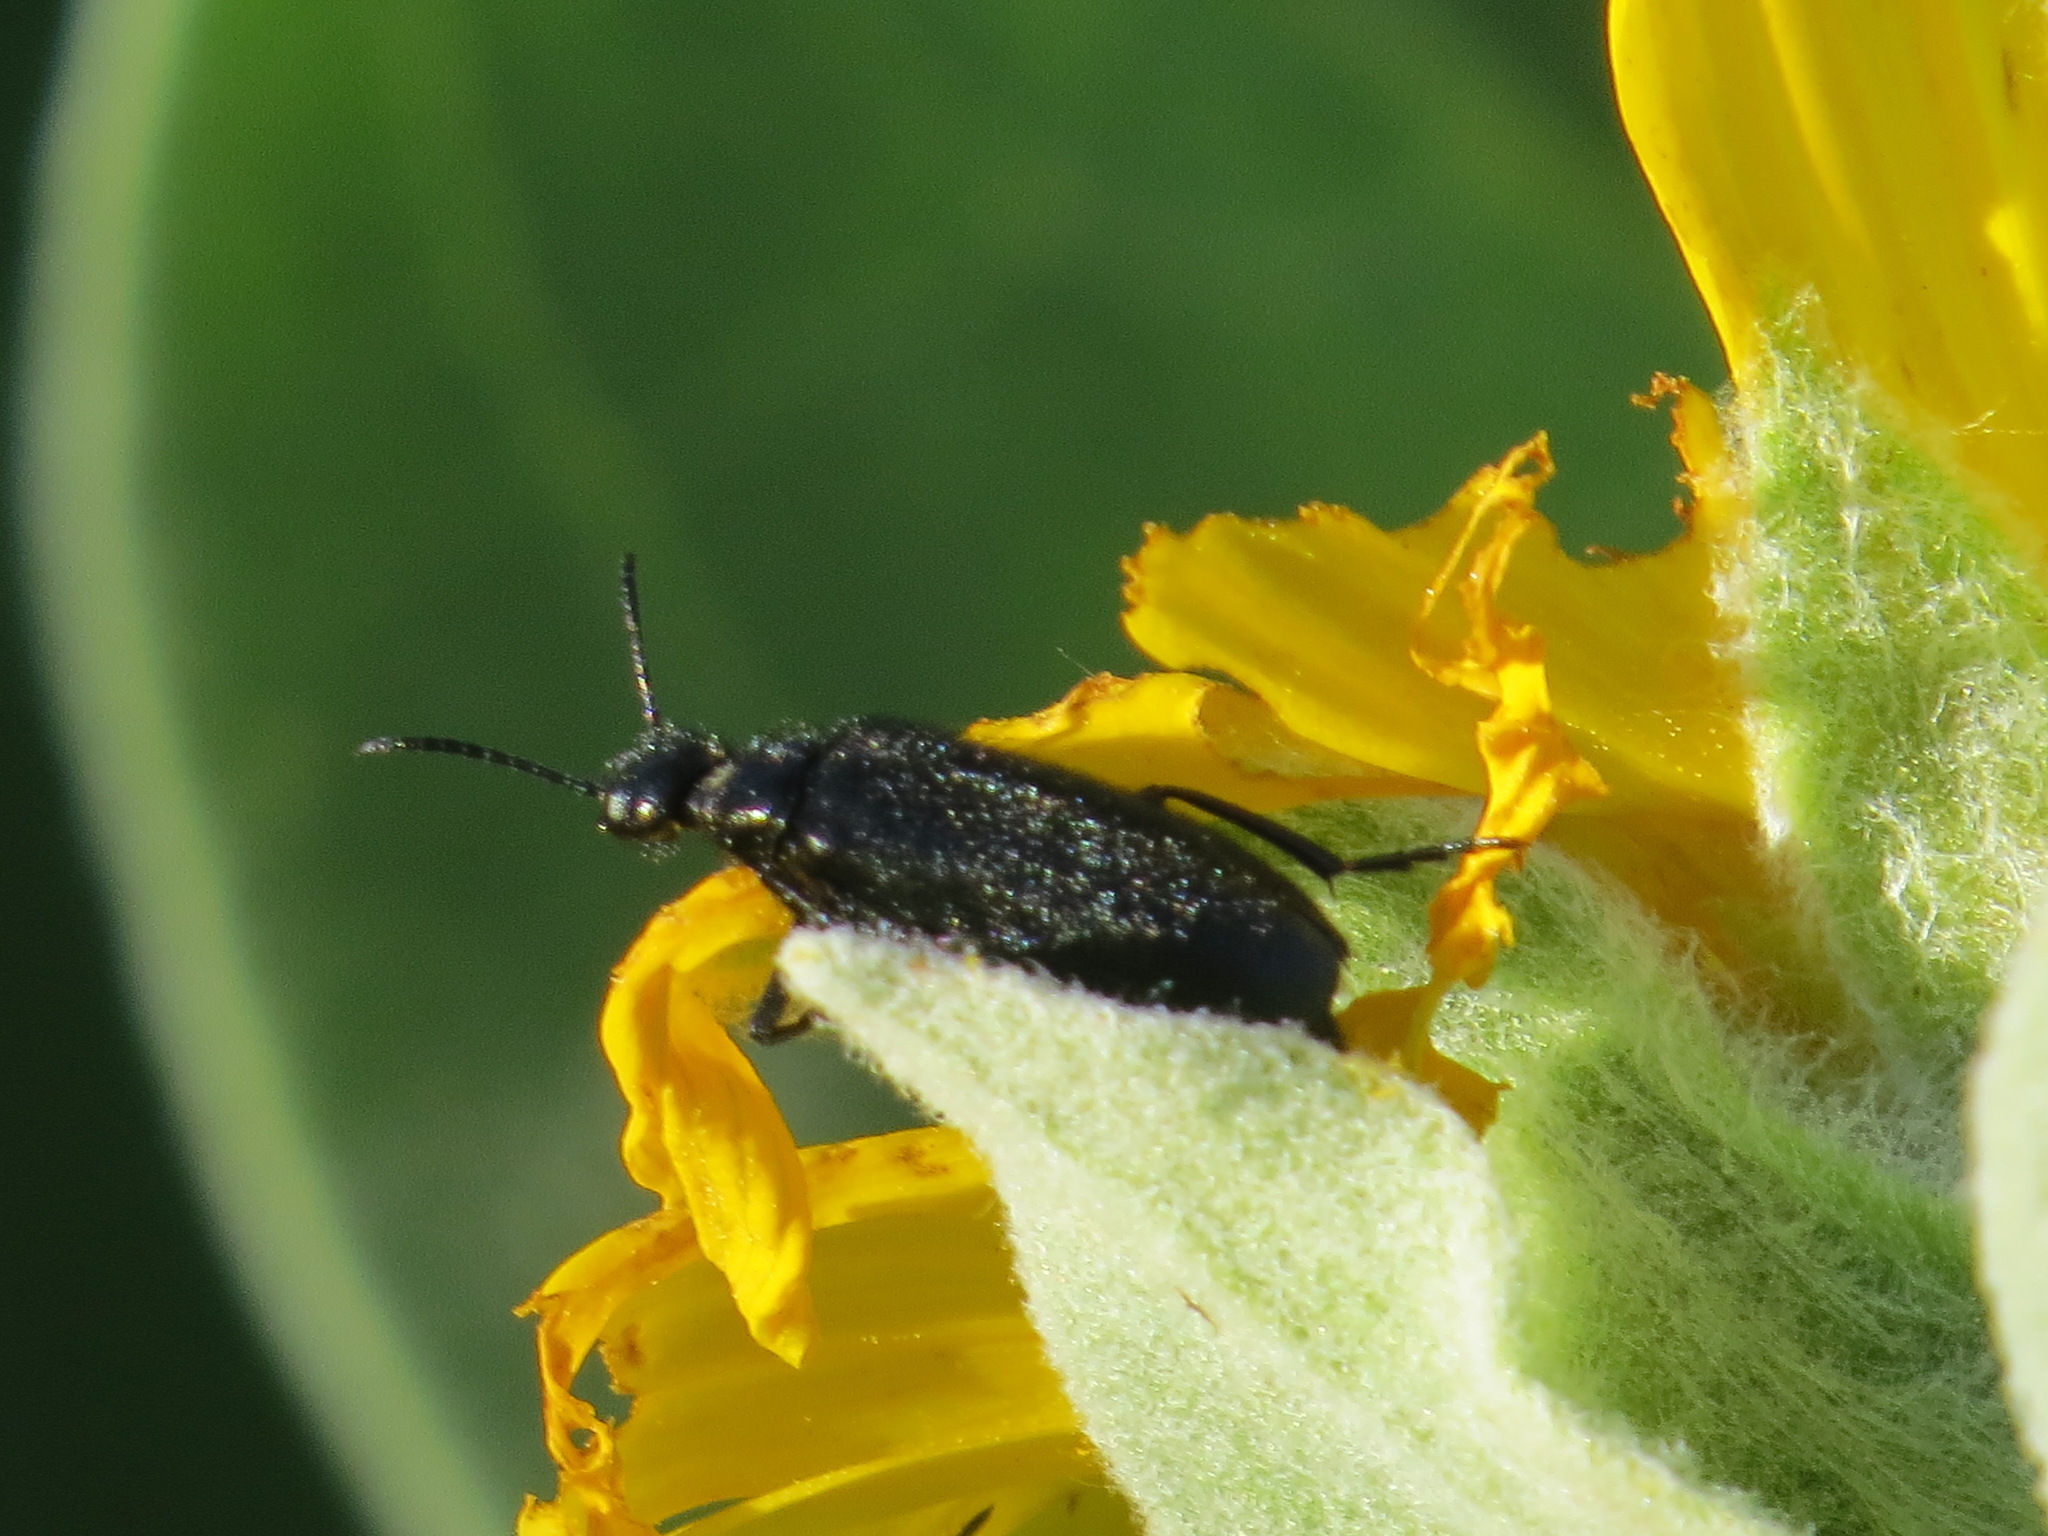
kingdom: Animalia
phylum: Arthropoda
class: Insecta
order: Coleoptera
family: Meloidae
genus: Epicauta
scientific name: Epicauta puncticollis
